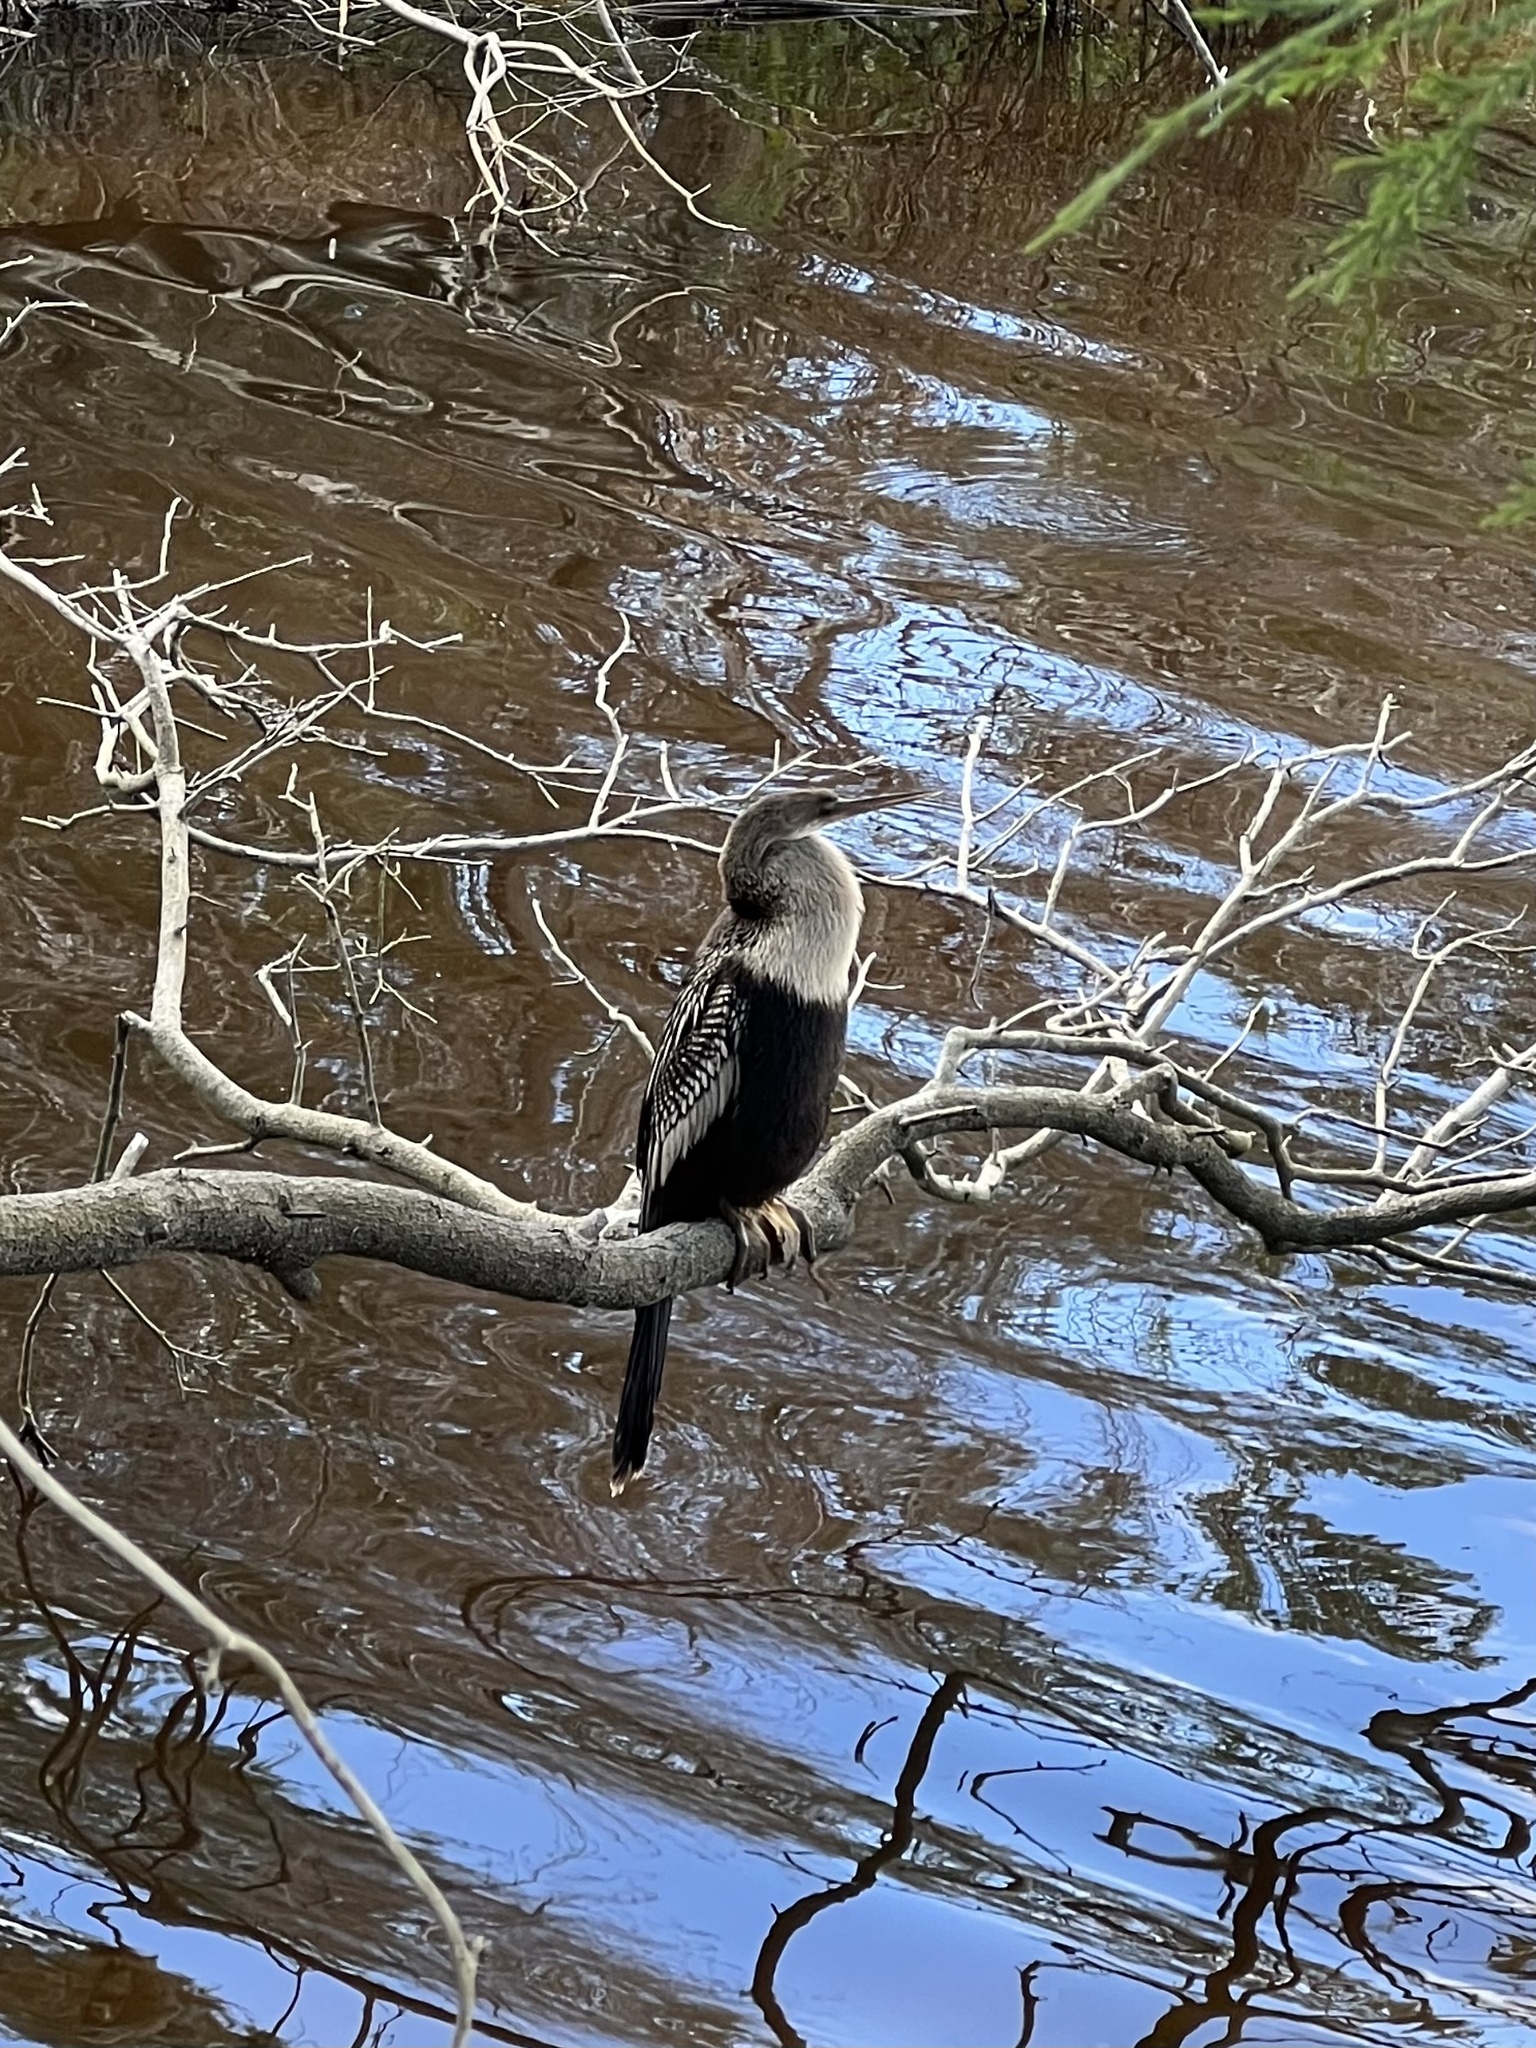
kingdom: Animalia
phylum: Chordata
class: Aves
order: Suliformes
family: Anhingidae
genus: Anhinga
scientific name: Anhinga anhinga
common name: Anhinga
